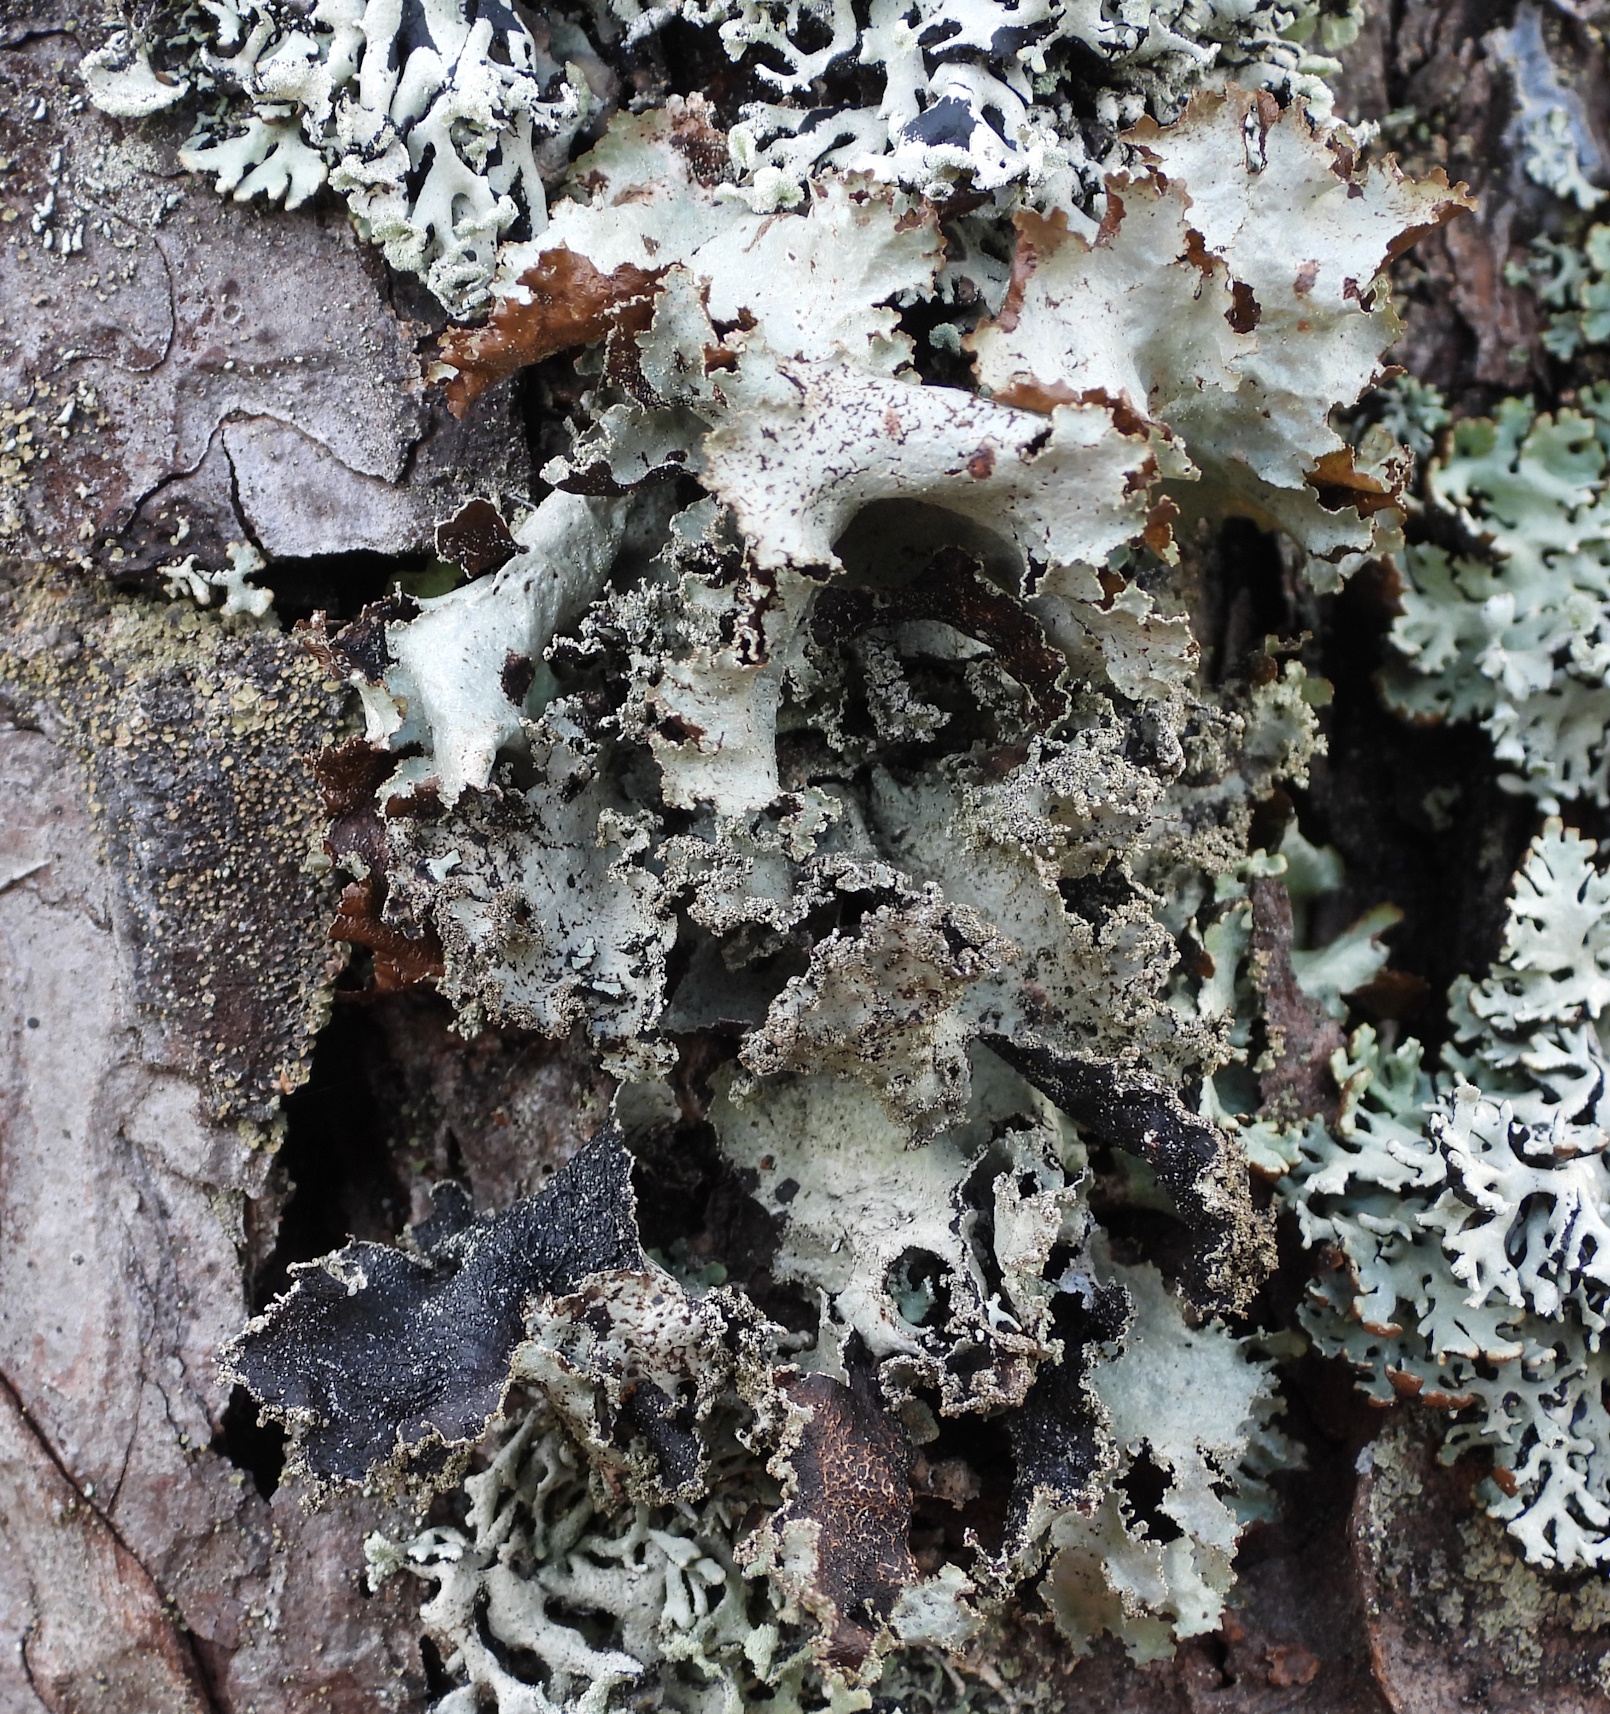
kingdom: Fungi
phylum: Ascomycota
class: Lecanoromycetes
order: Lecanorales
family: Parmeliaceae
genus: Platismatia
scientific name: Platismatia glauca
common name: Varied rag lichen
